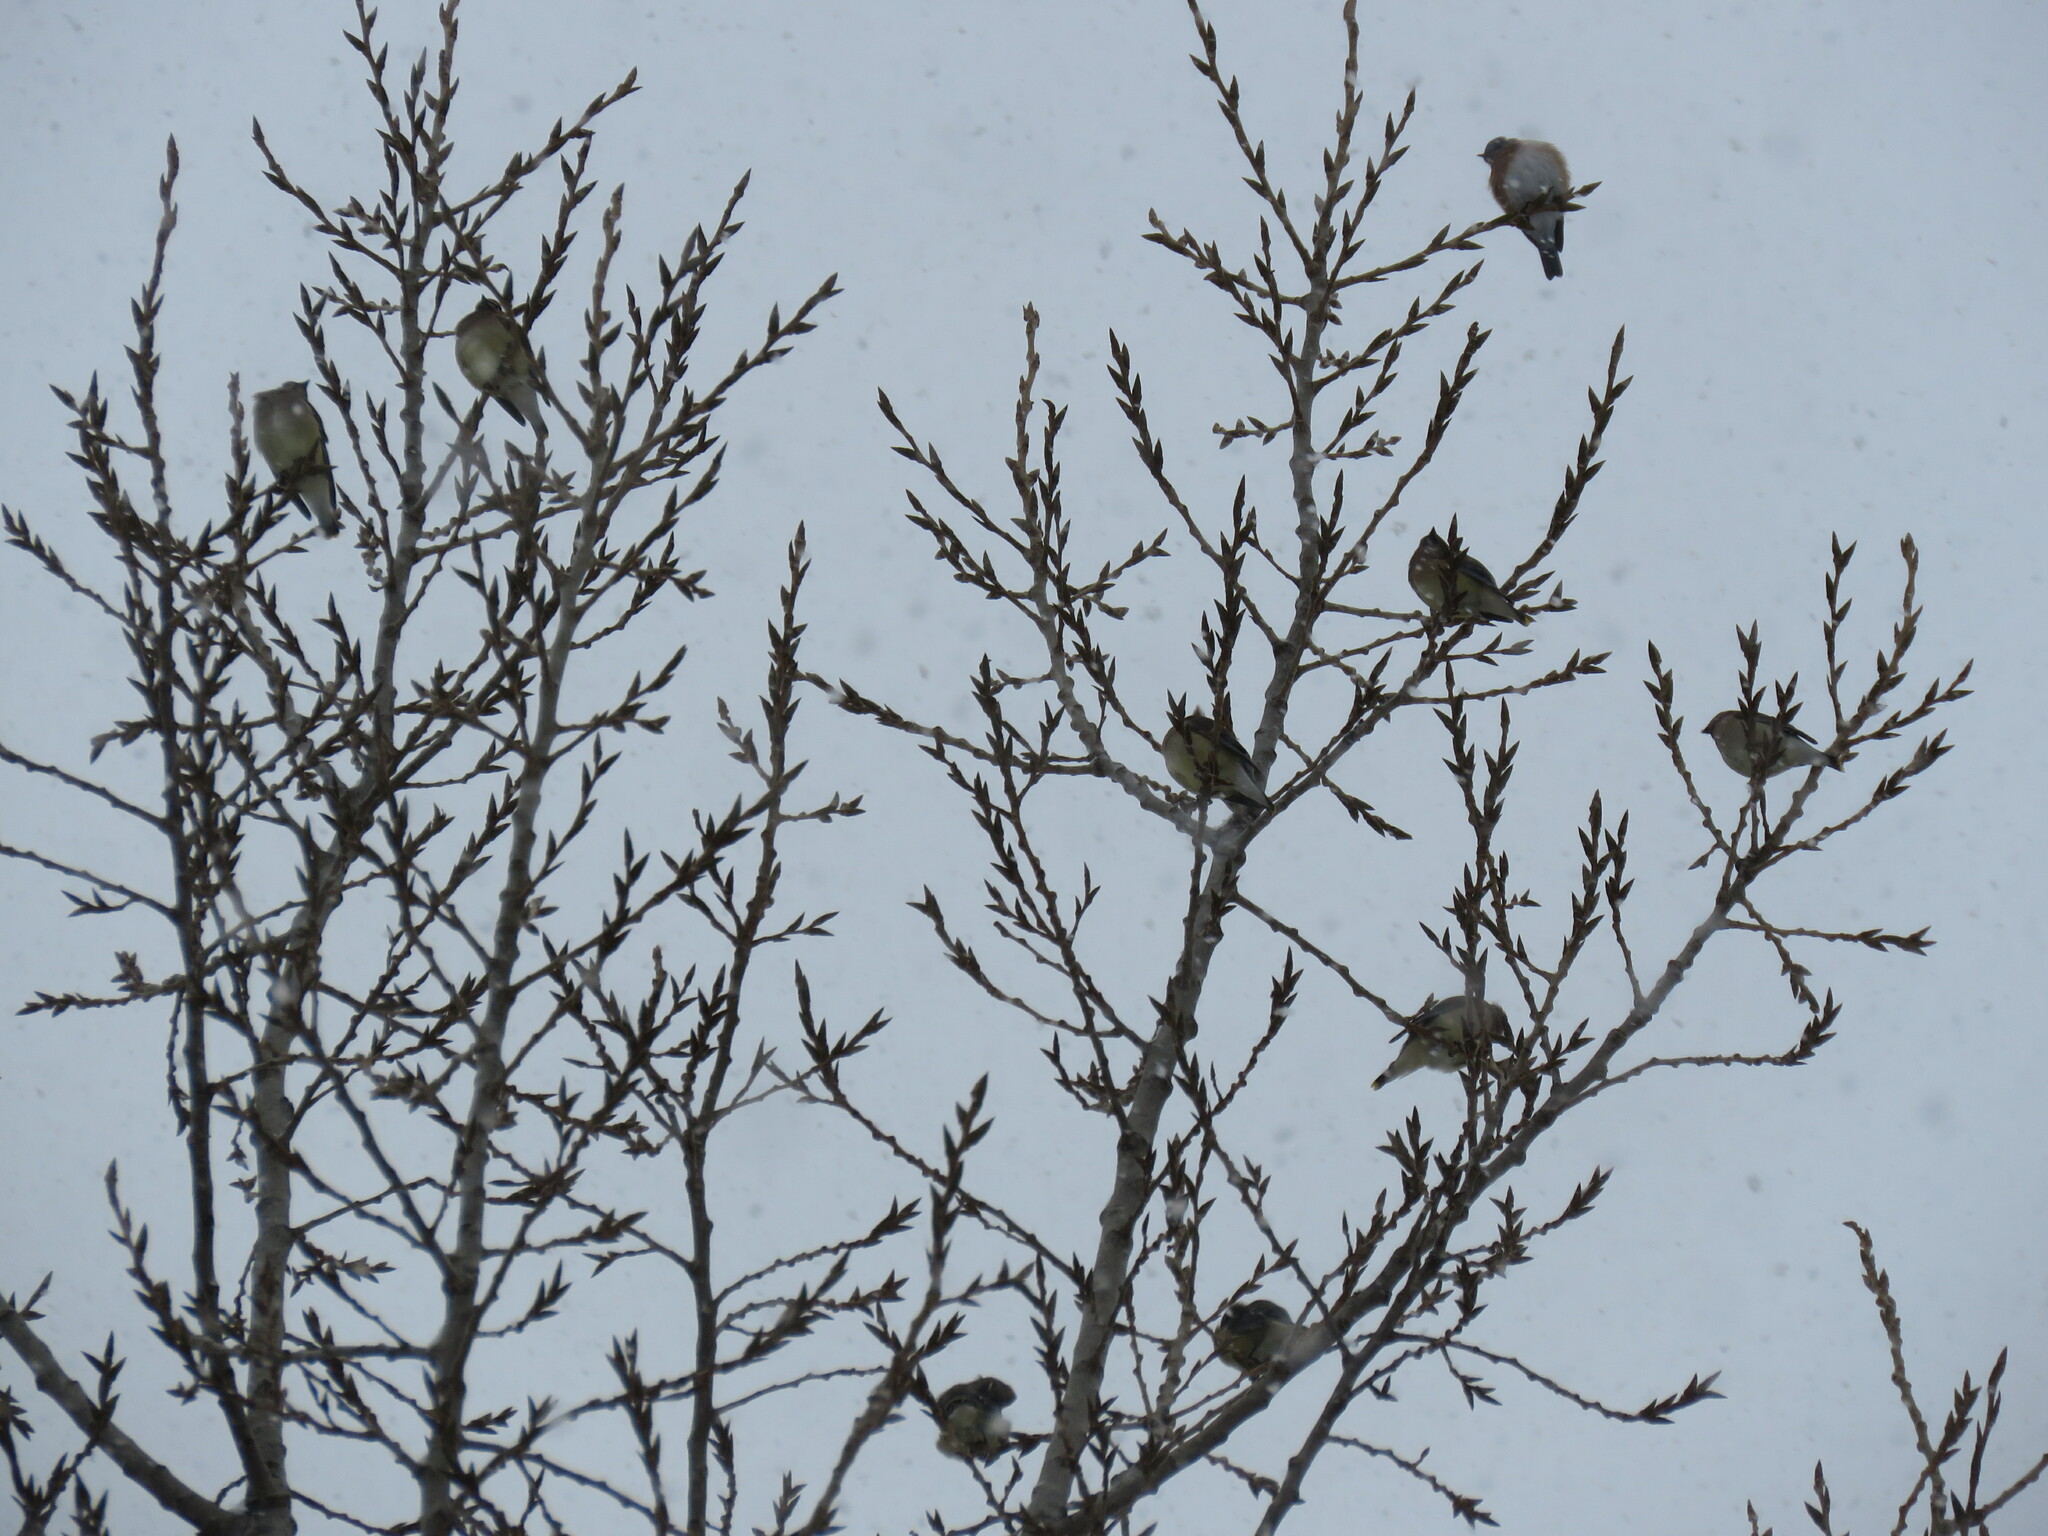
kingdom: Animalia
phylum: Chordata
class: Aves
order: Passeriformes
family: Bombycillidae
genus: Bombycilla
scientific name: Bombycilla cedrorum
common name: Cedar waxwing
